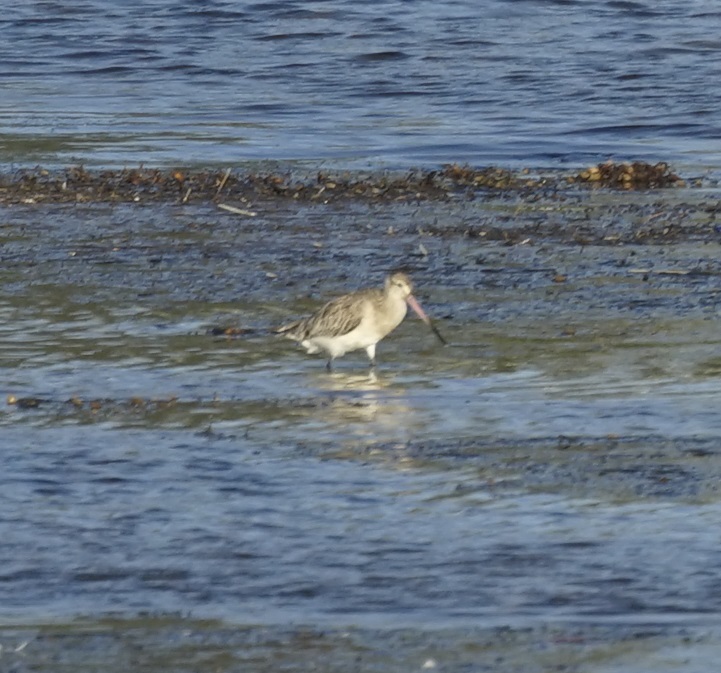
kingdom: Animalia
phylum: Chordata
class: Aves
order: Charadriiformes
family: Scolopacidae
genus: Limosa
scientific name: Limosa lapponica
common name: Bar-tailed godwit
